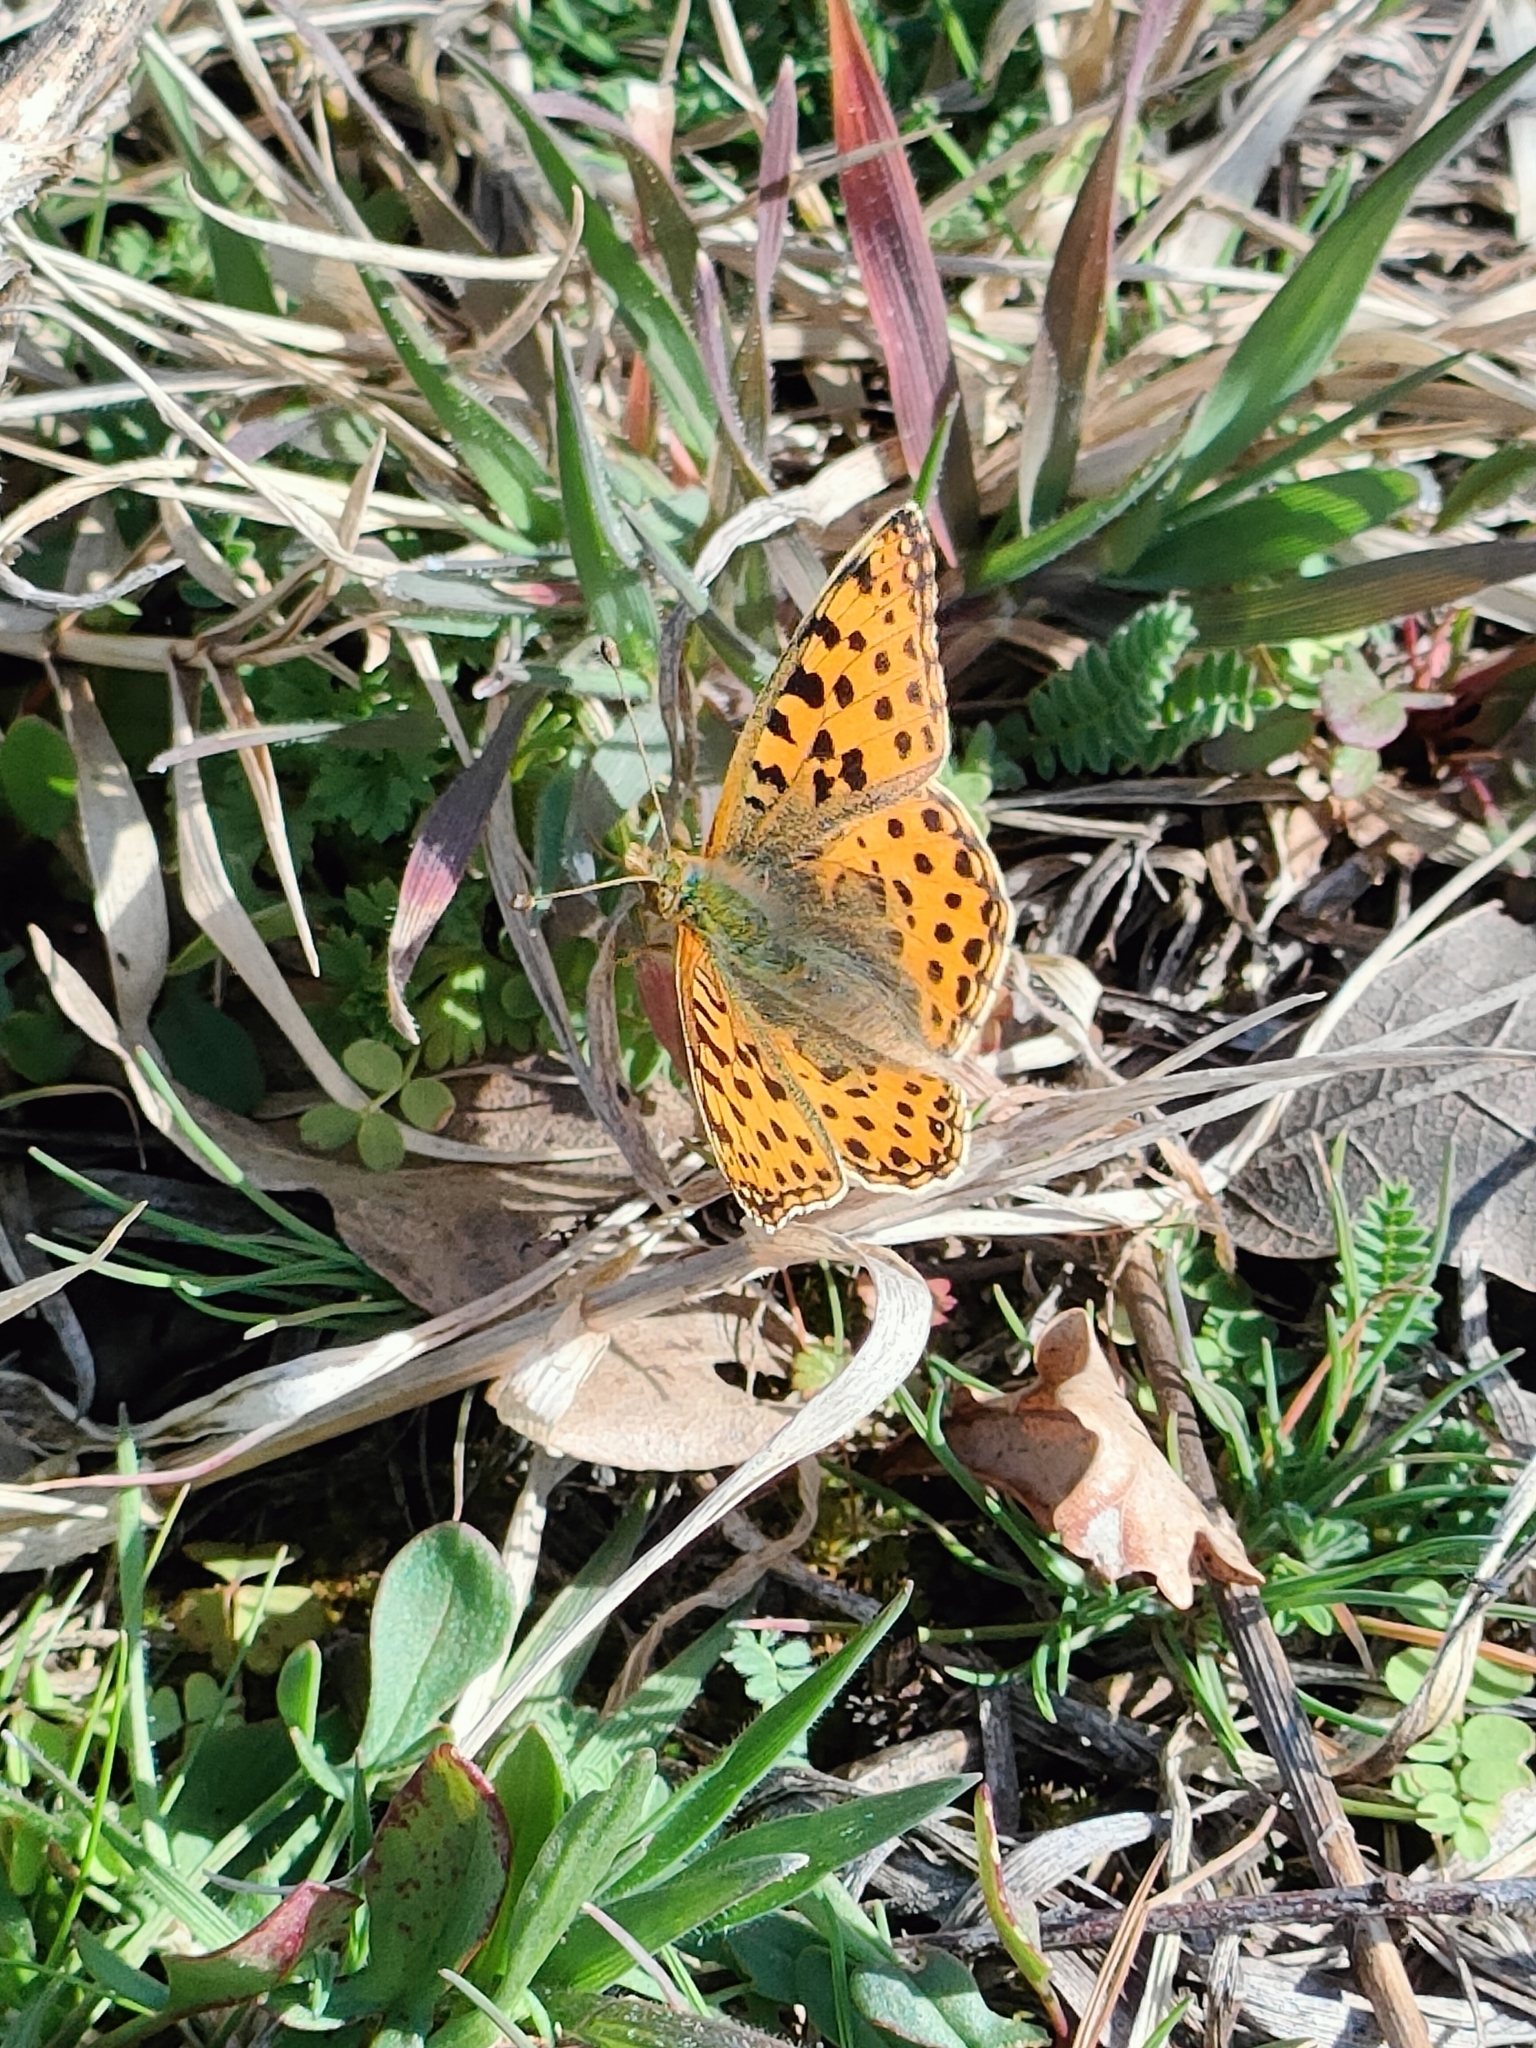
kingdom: Animalia
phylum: Arthropoda
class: Insecta
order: Lepidoptera
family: Nymphalidae
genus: Issoria
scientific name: Issoria lathonia
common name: Queen of spain fritillary
